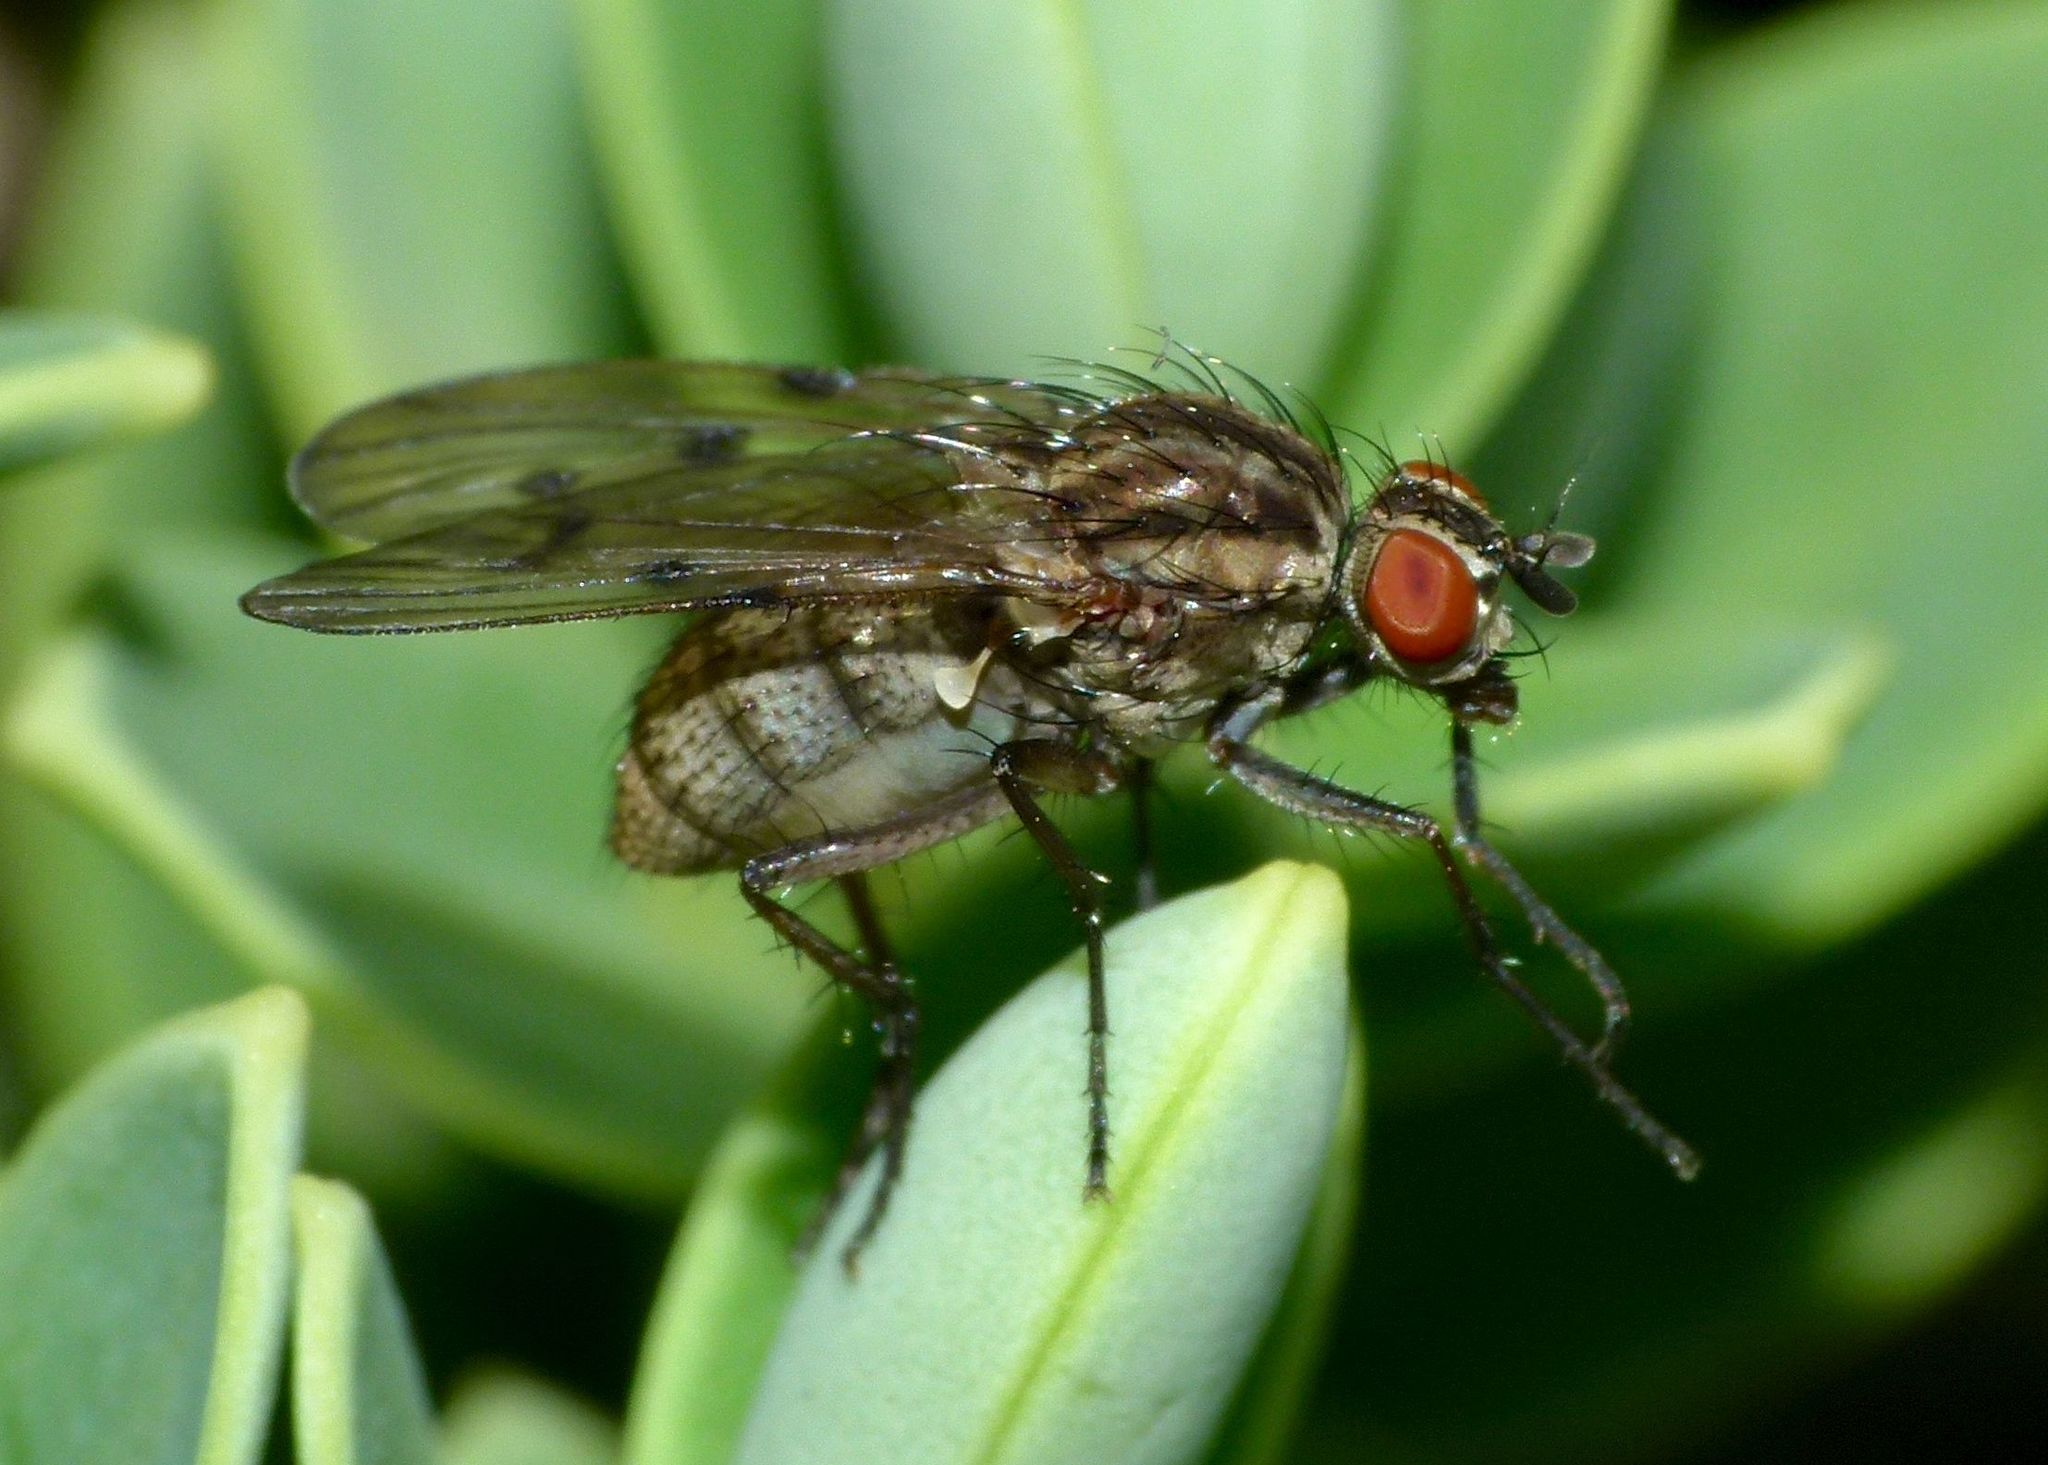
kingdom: Animalia
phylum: Arthropoda
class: Insecta
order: Diptera
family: Anthomyiidae
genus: Anthomyia
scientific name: Anthomyia punctipennis
